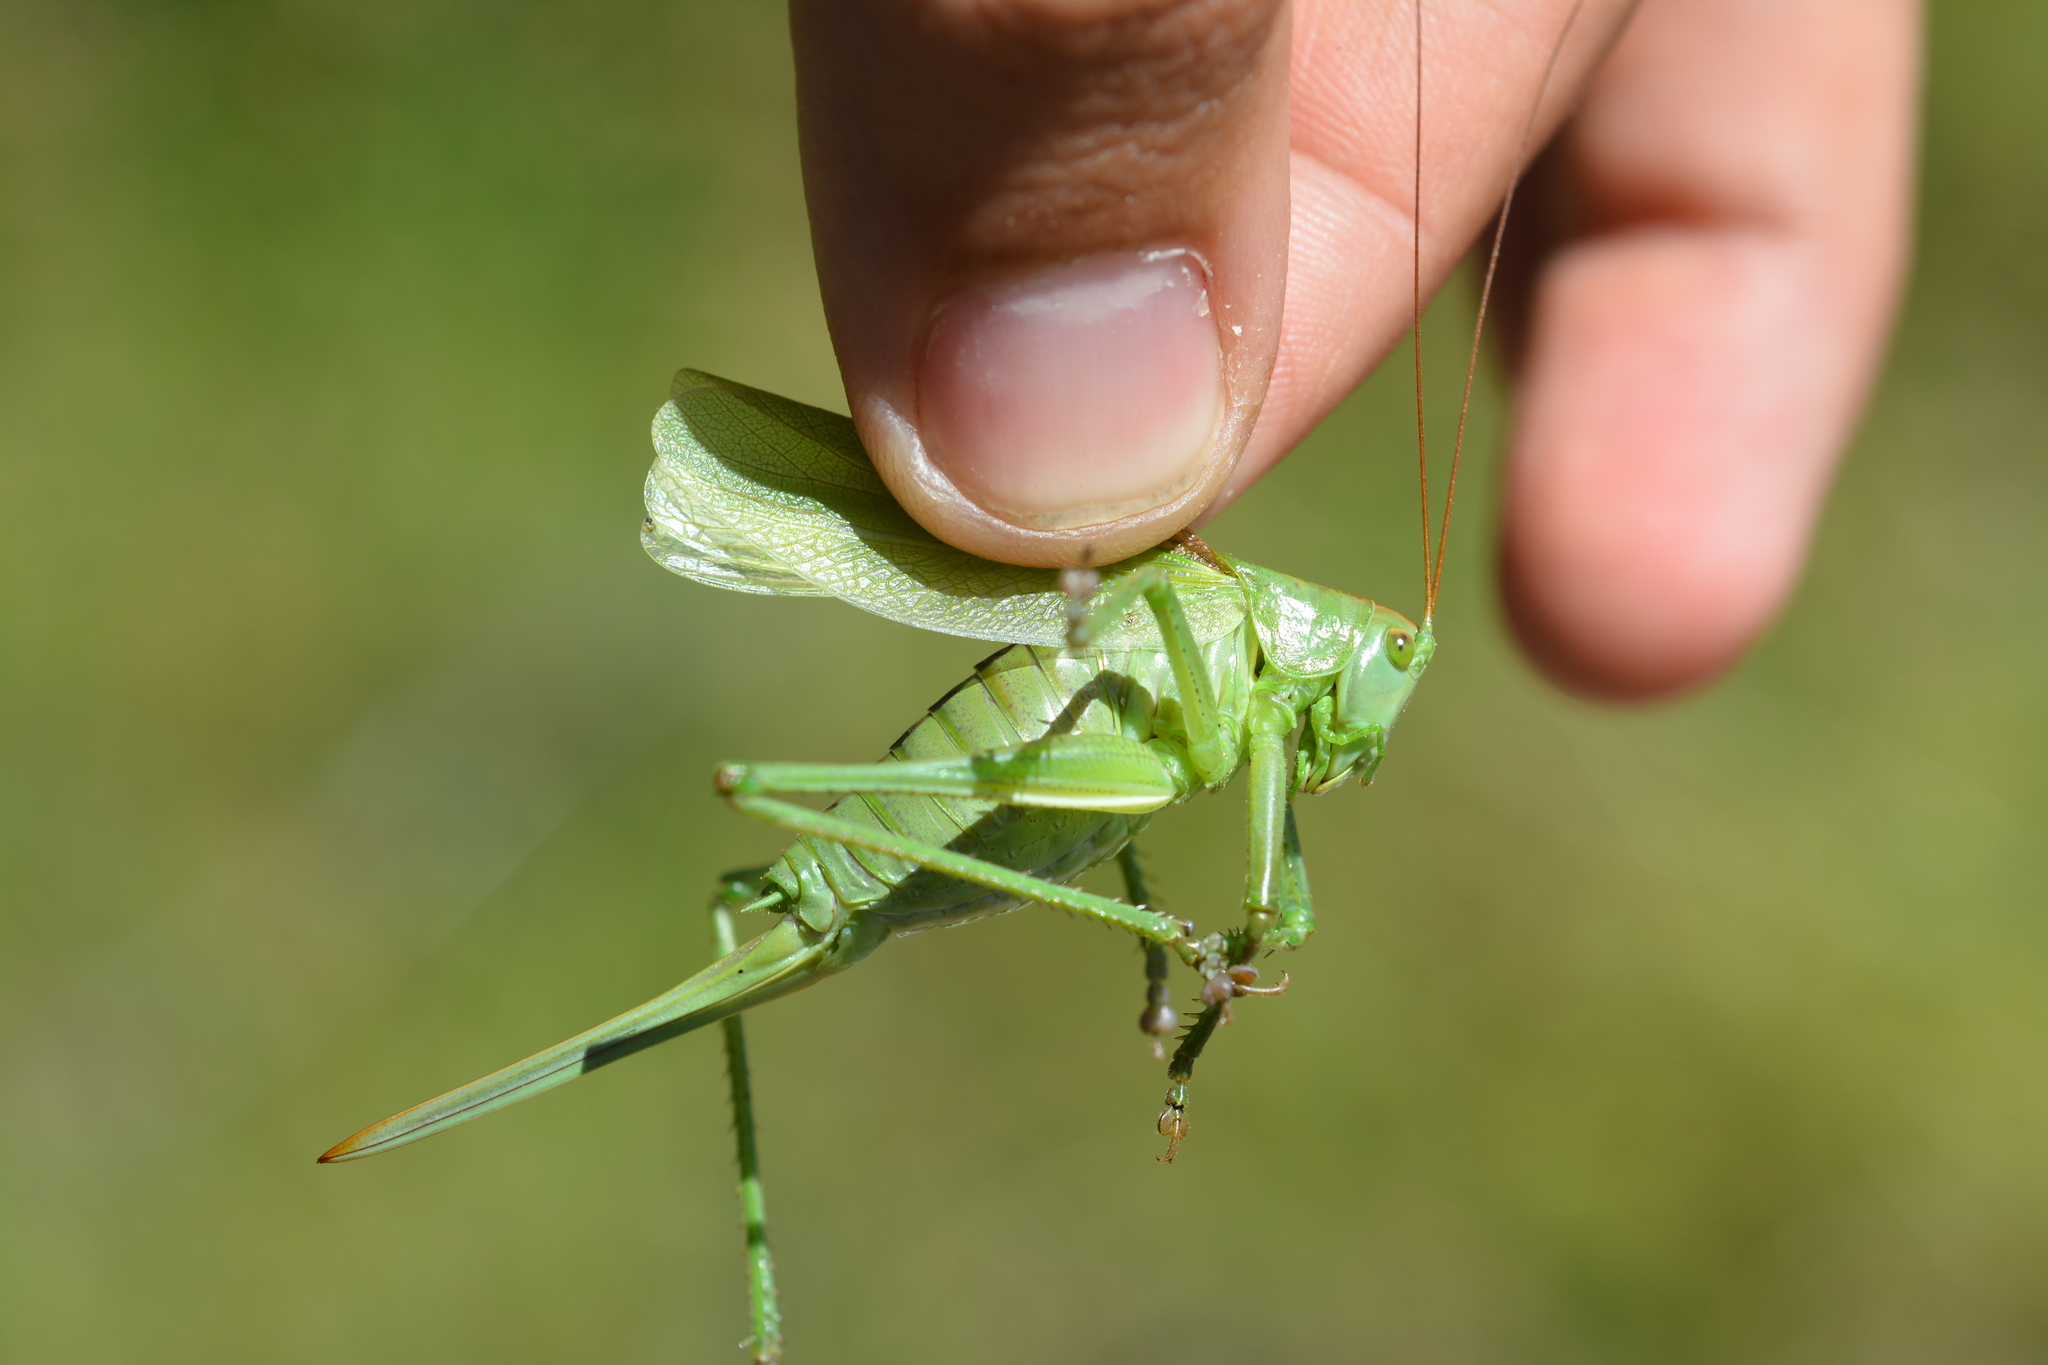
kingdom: Animalia
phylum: Arthropoda
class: Insecta
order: Orthoptera
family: Tettigoniidae
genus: Tettigonia
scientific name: Tettigonia cantans
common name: Upland green bush-cricket
